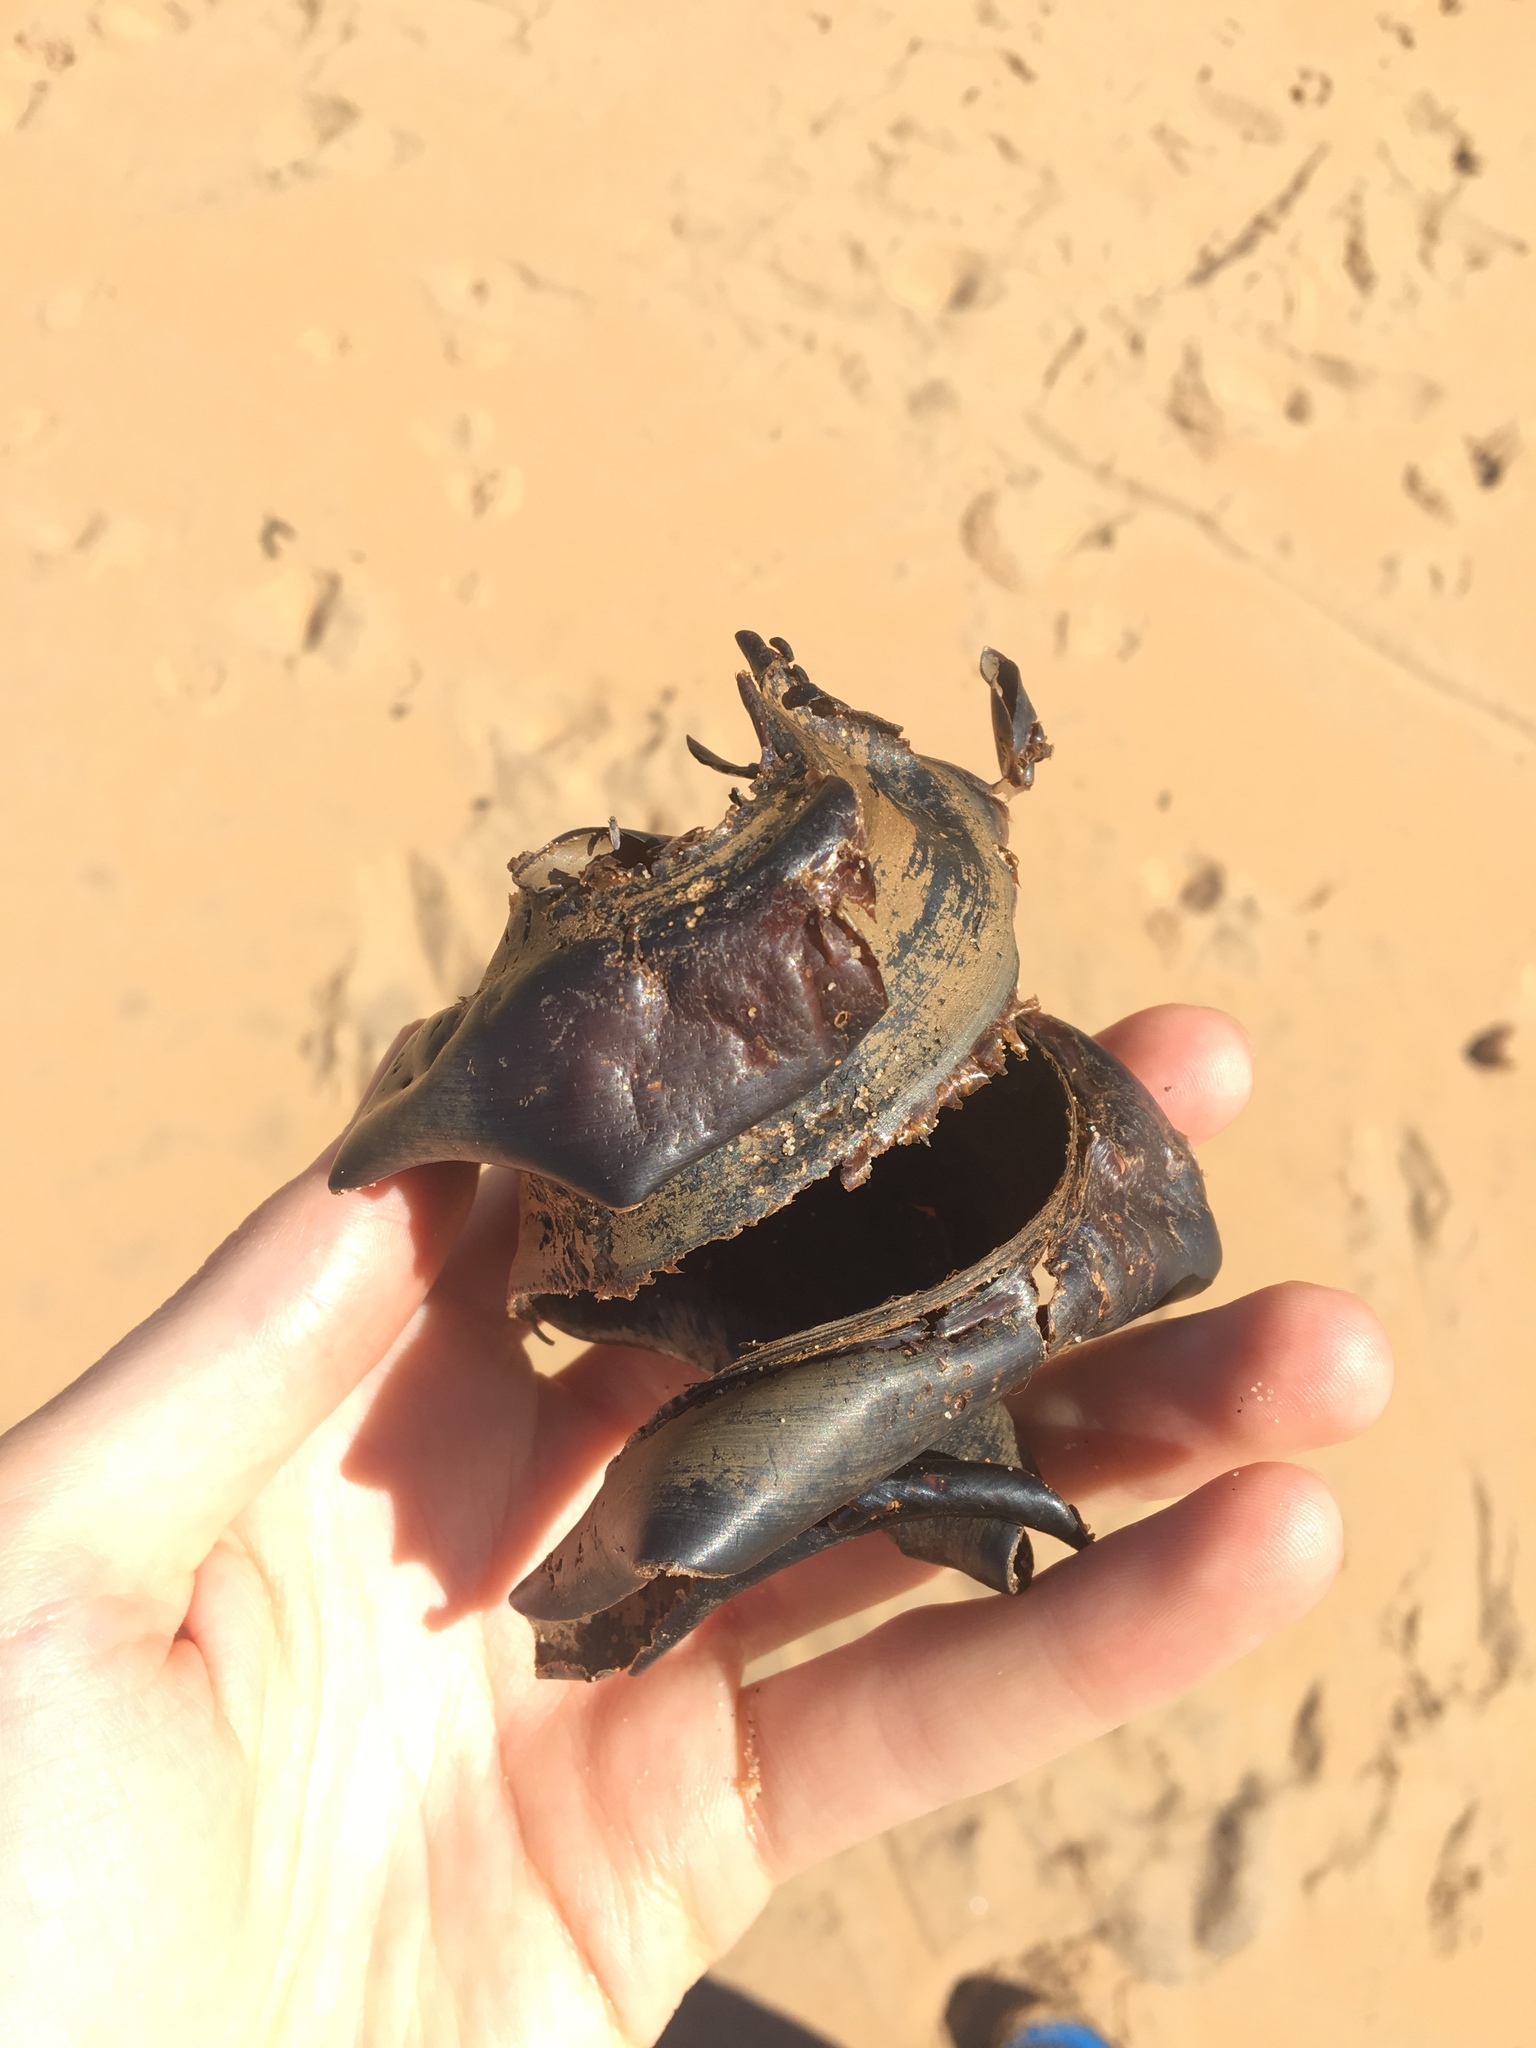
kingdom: Animalia
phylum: Chordata
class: Elasmobranchii
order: Heterodontiformes
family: Heterodontidae
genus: Heterodontus
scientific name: Heterodontus portusjacksoni
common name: Port jackson shark
